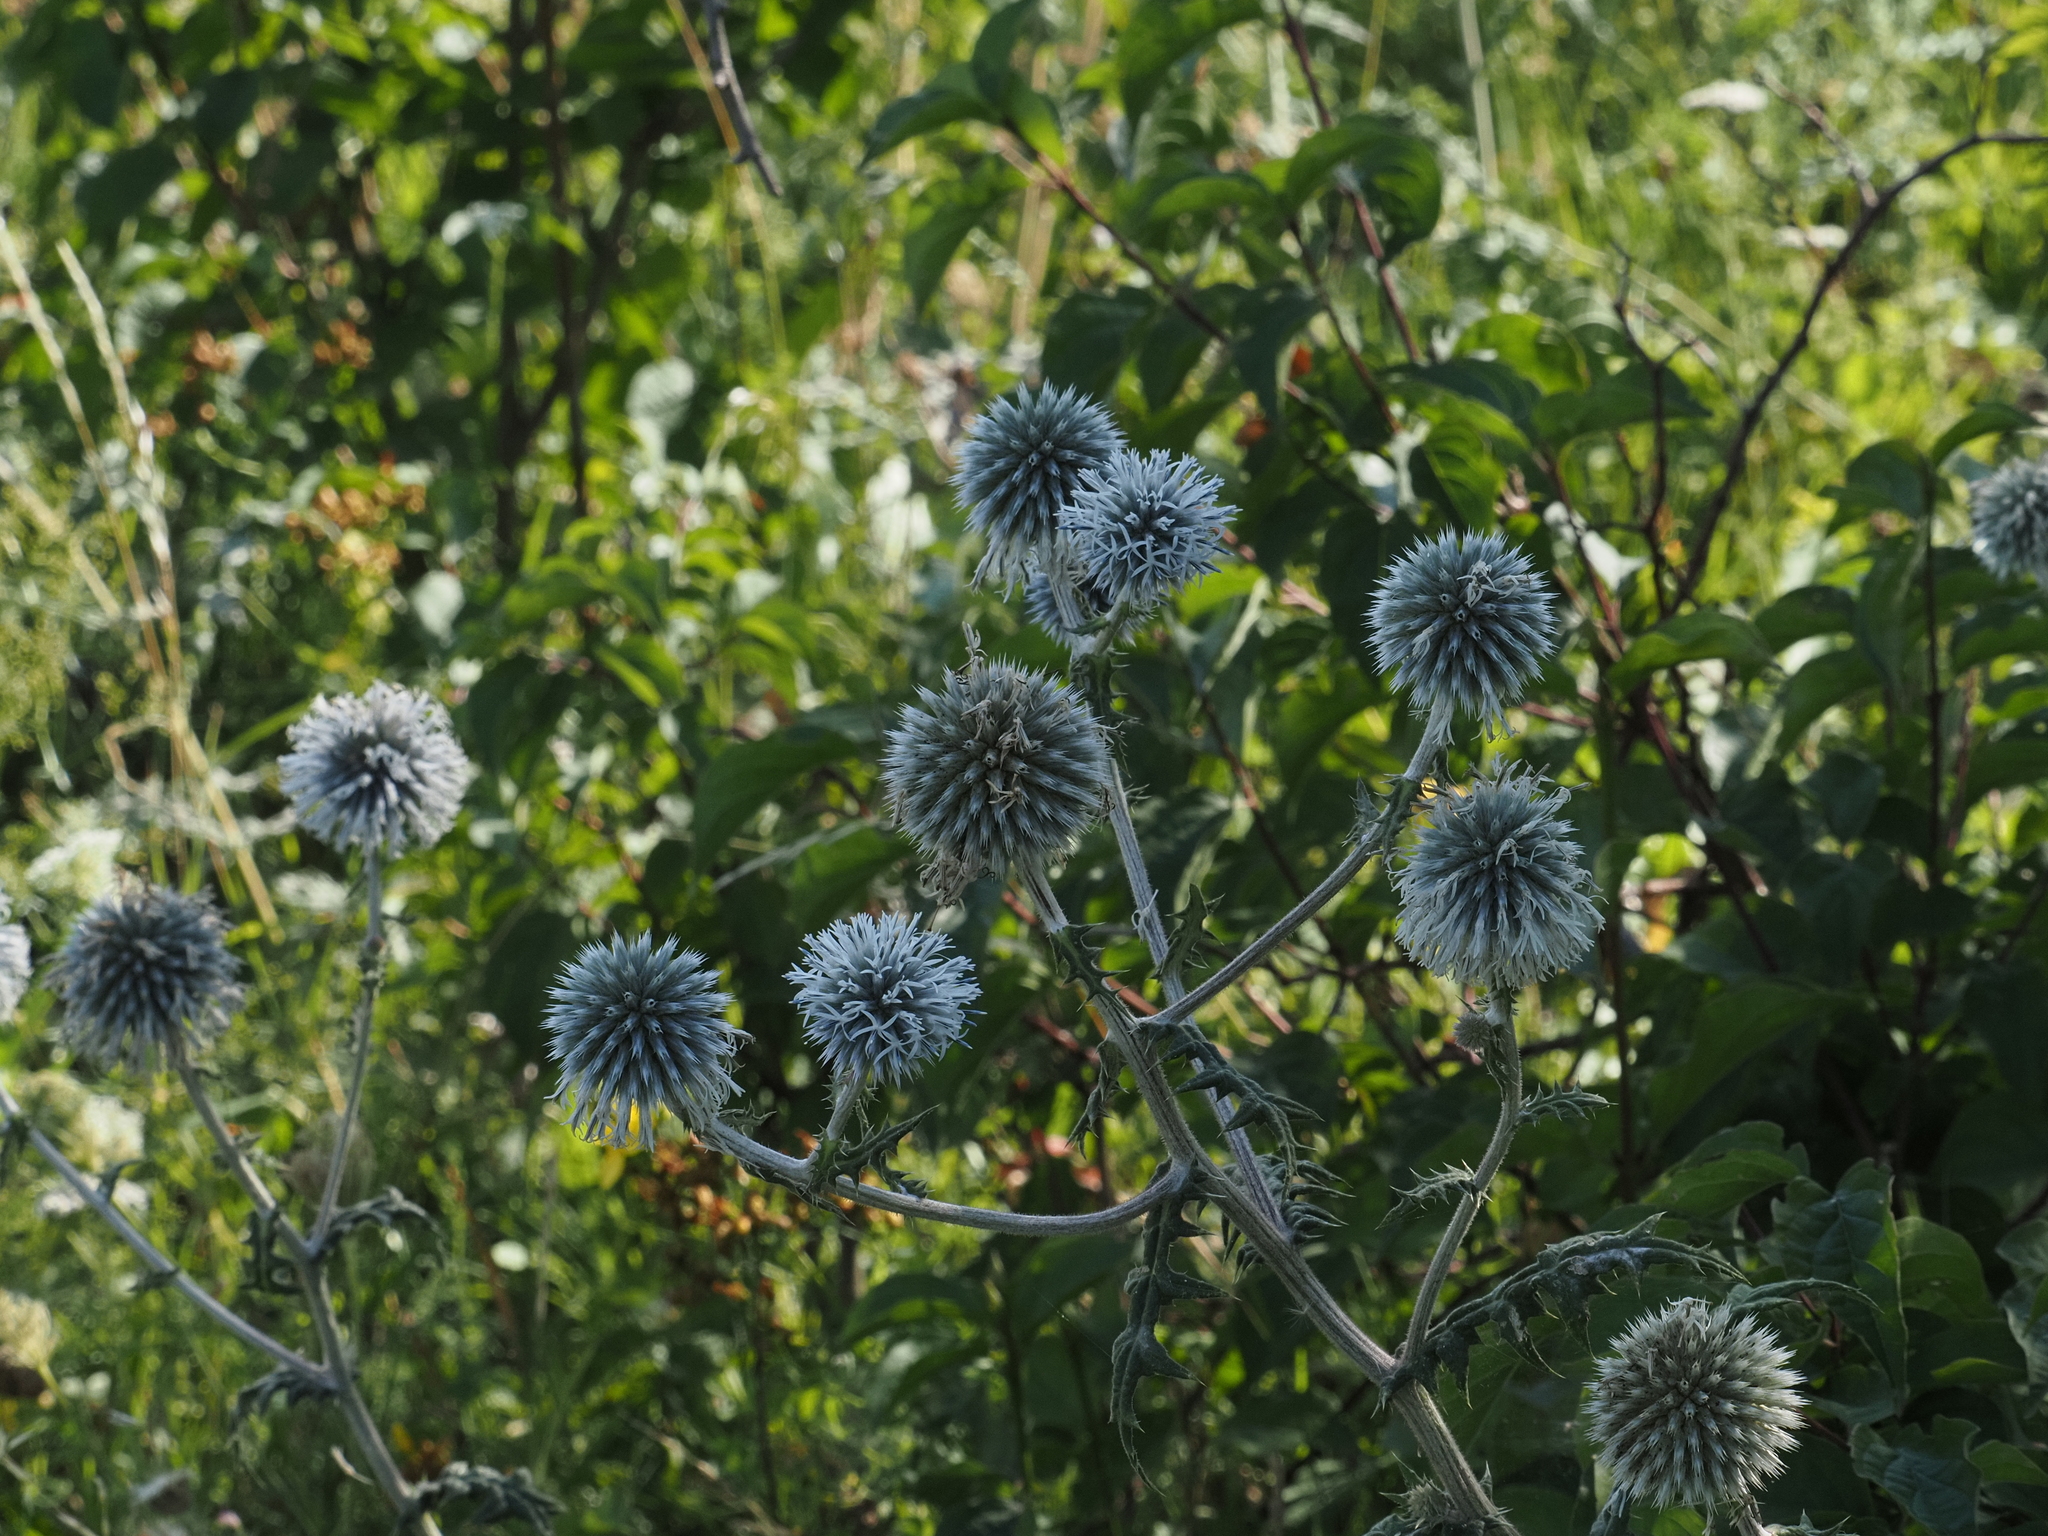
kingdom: Plantae
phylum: Tracheophyta
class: Magnoliopsida
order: Asterales
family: Asteraceae
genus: Echinops
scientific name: Echinops sphaerocephalus
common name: Glandular globe-thistle
